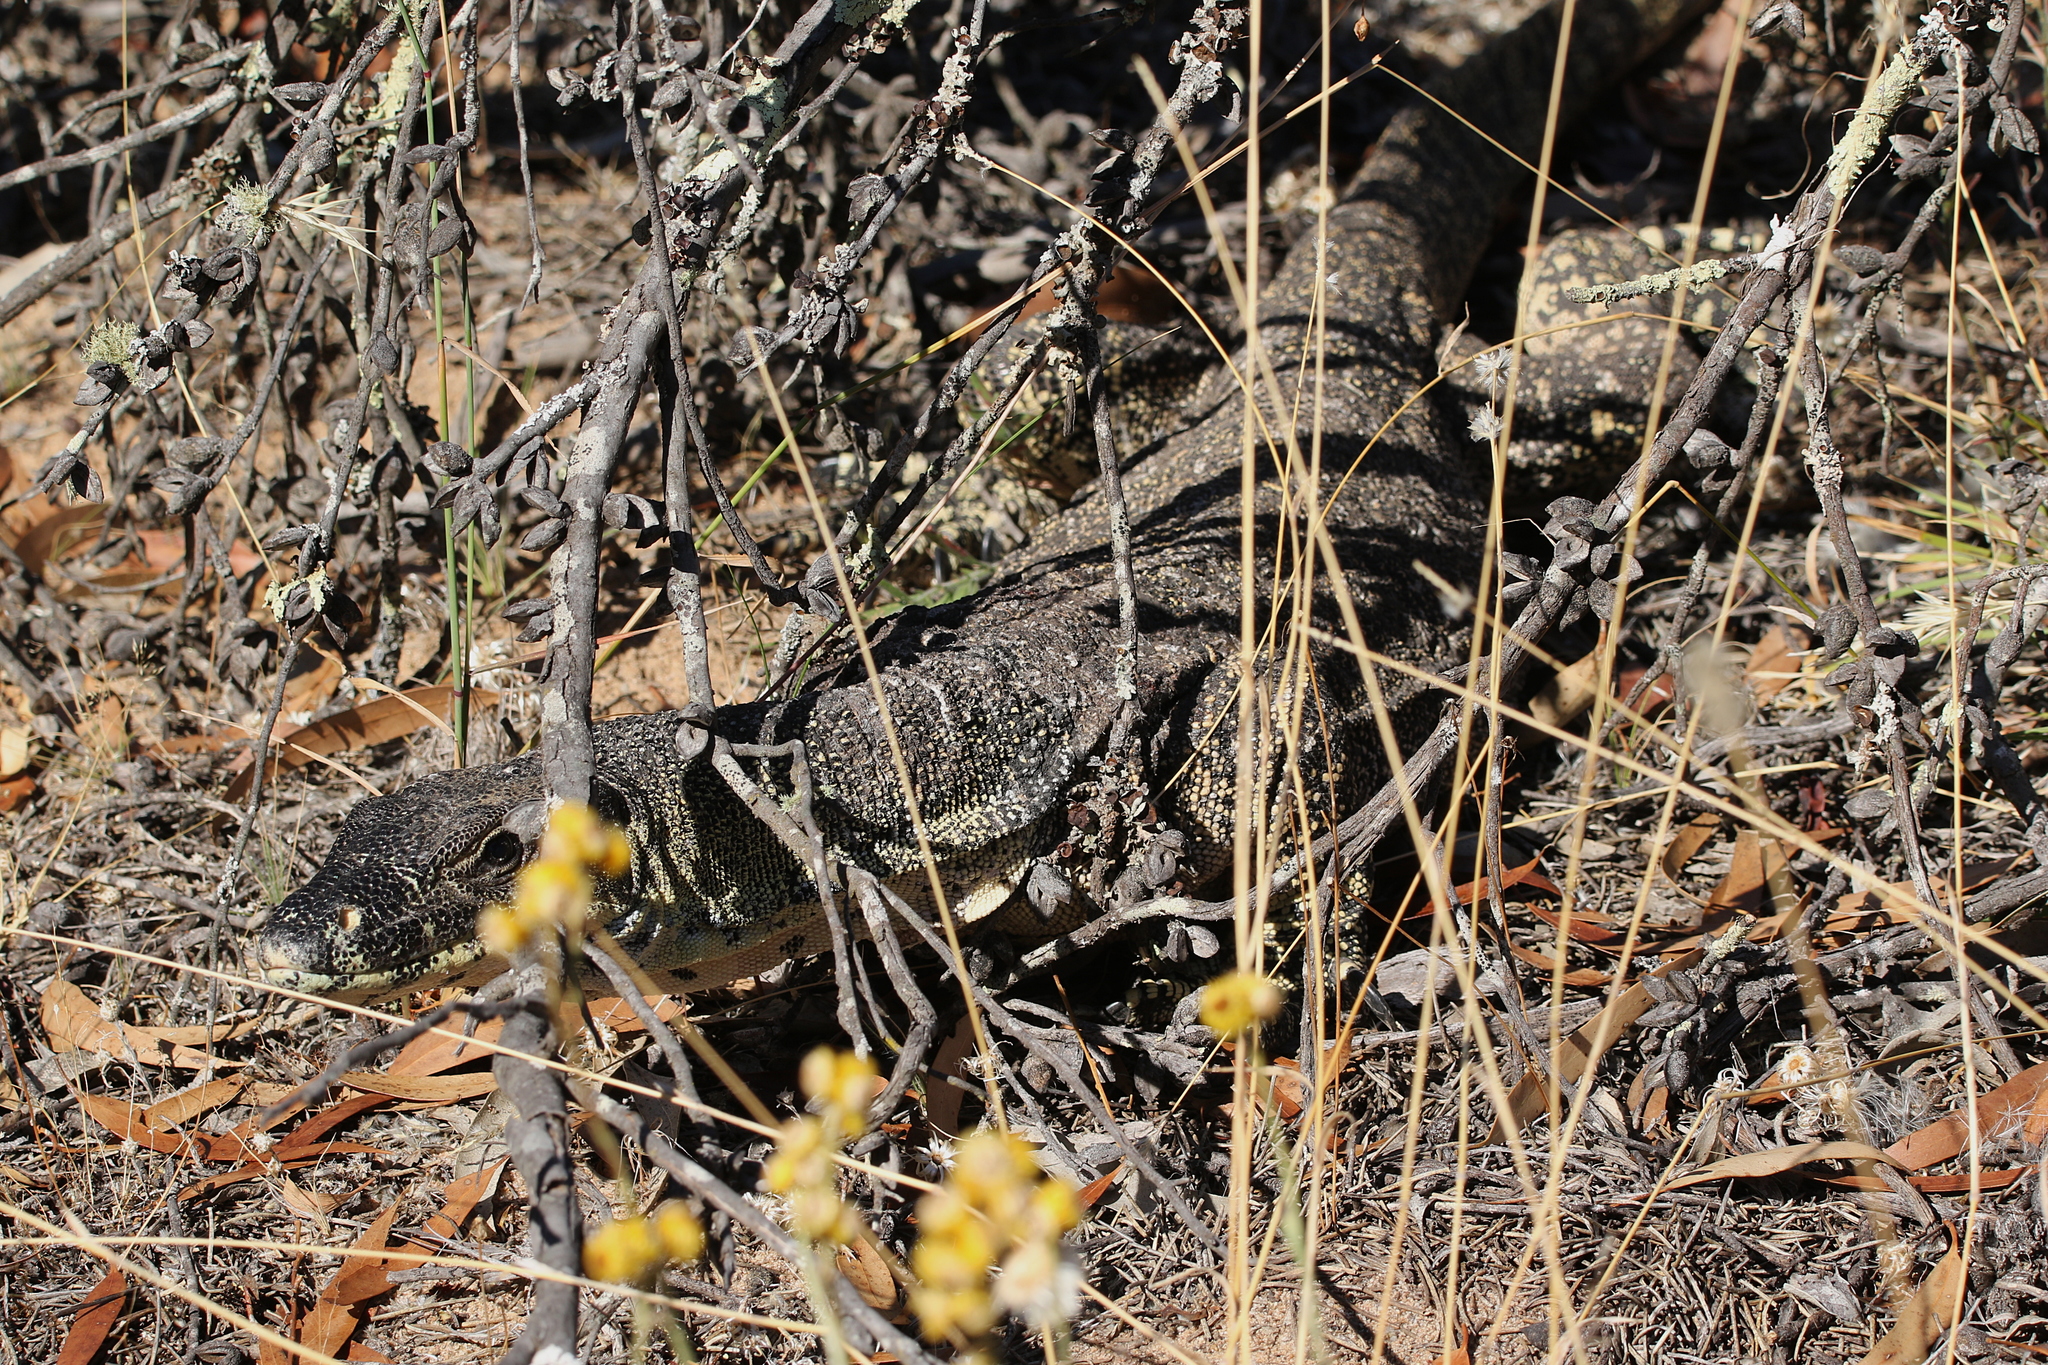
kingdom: Animalia
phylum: Chordata
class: Squamata
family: Varanidae
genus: Varanus
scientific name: Varanus varius
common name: Lace monitor
